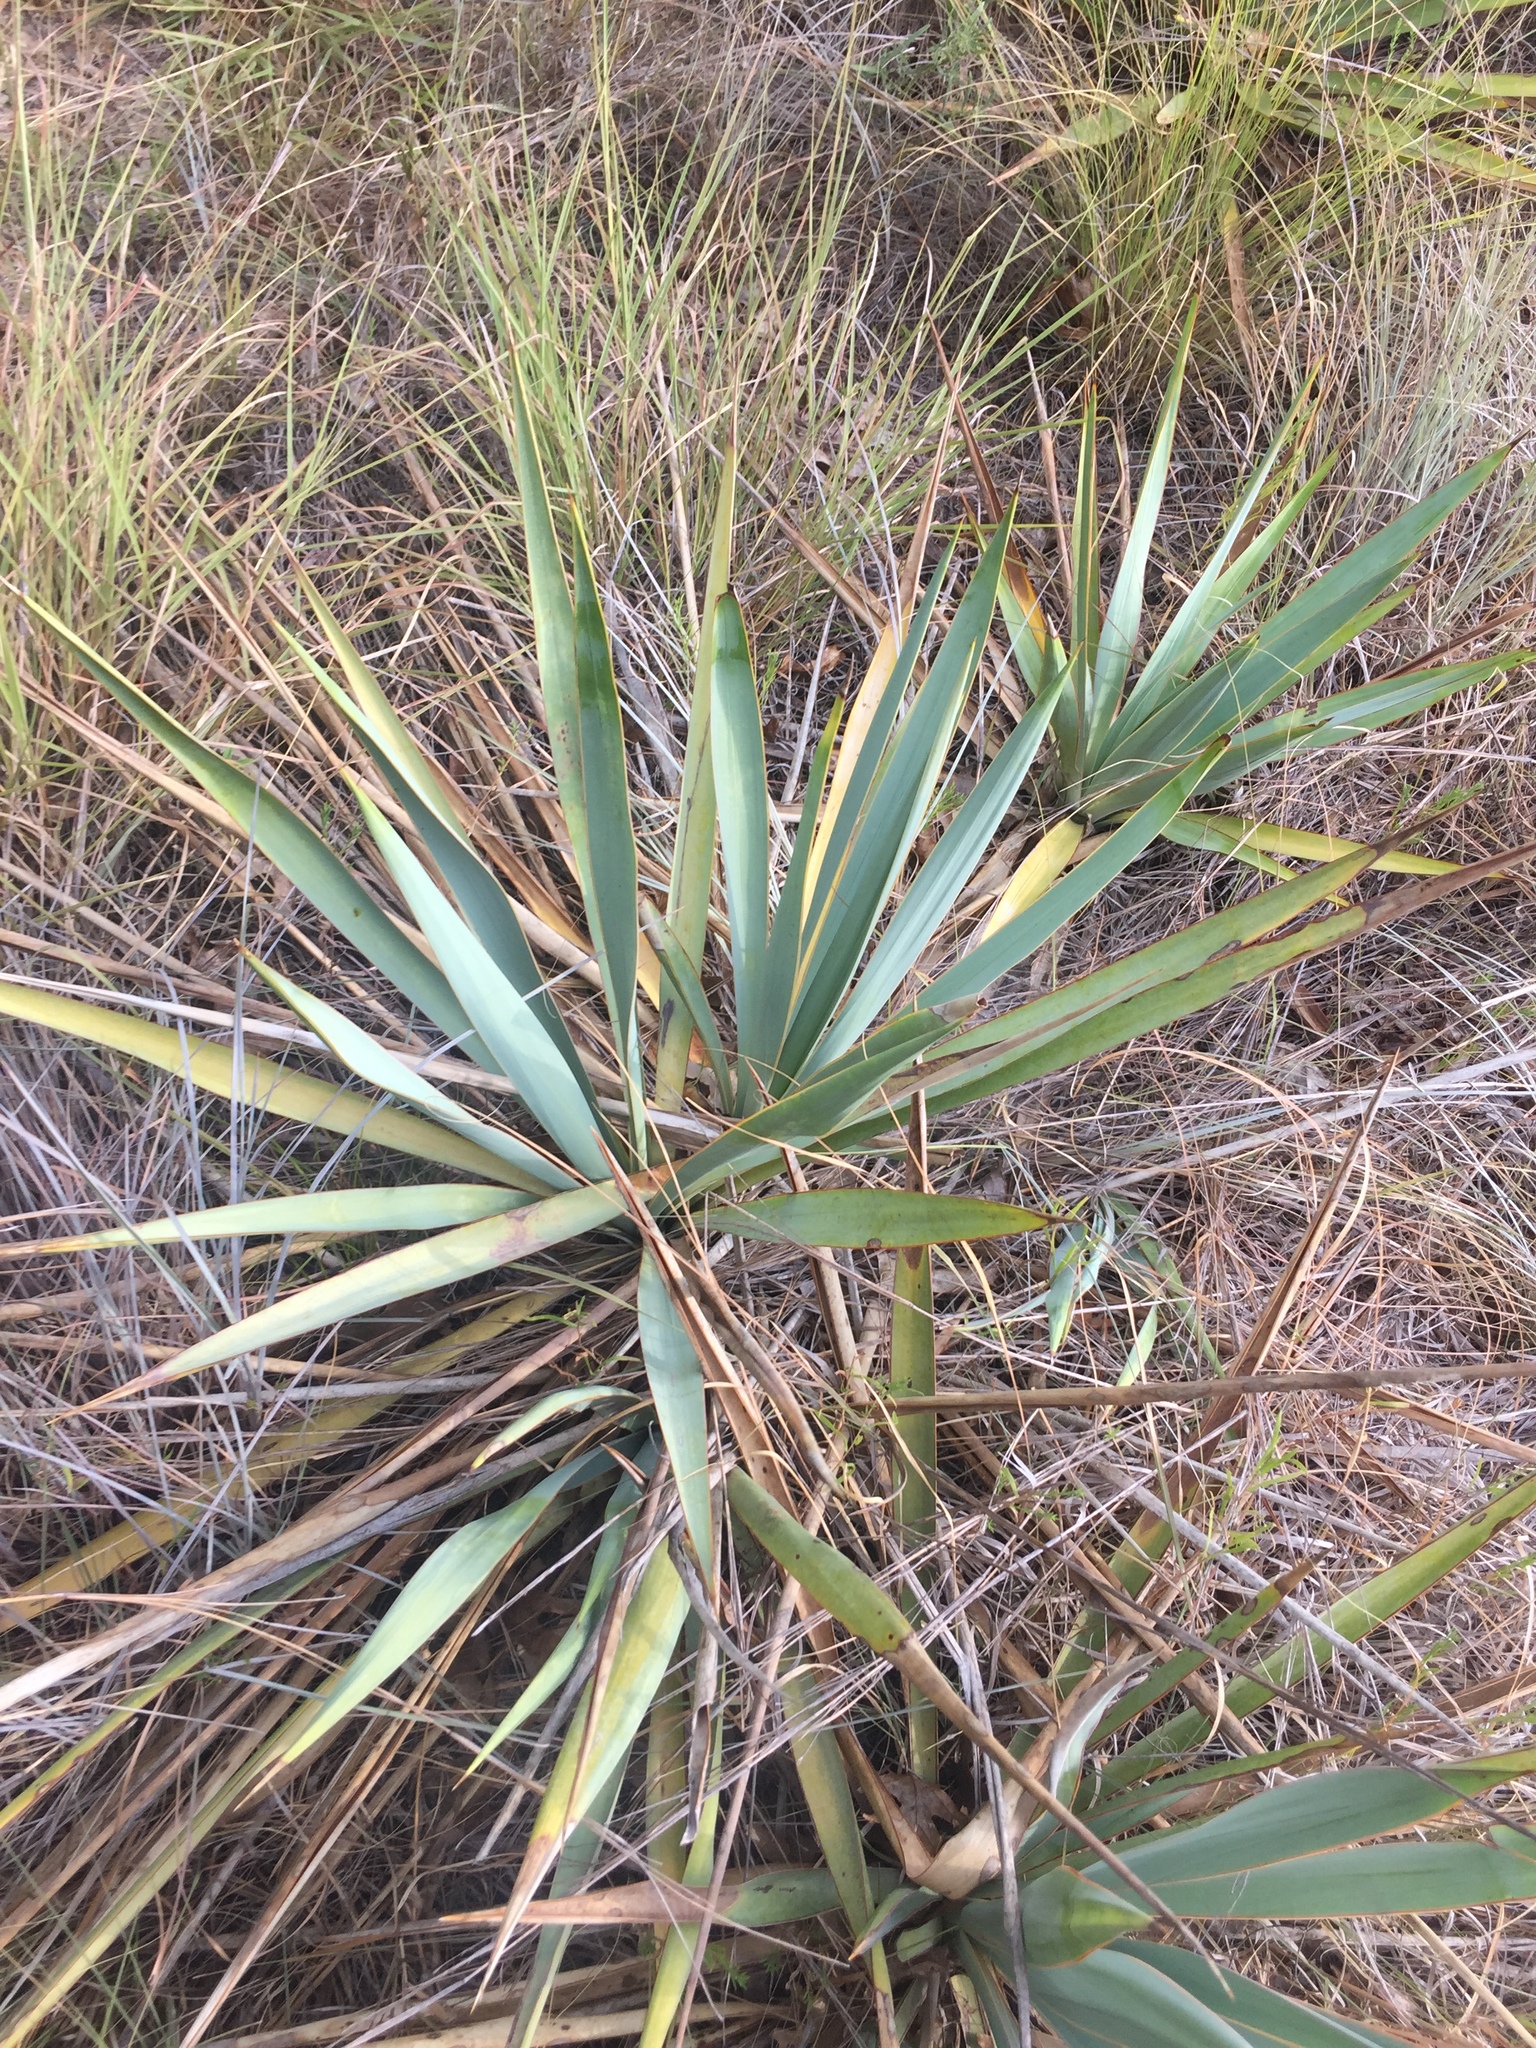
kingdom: Plantae
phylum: Tracheophyta
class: Liliopsida
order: Asparagales
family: Asparagaceae
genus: Yucca
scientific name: Yucca pallida
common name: Pale leaf yucca
